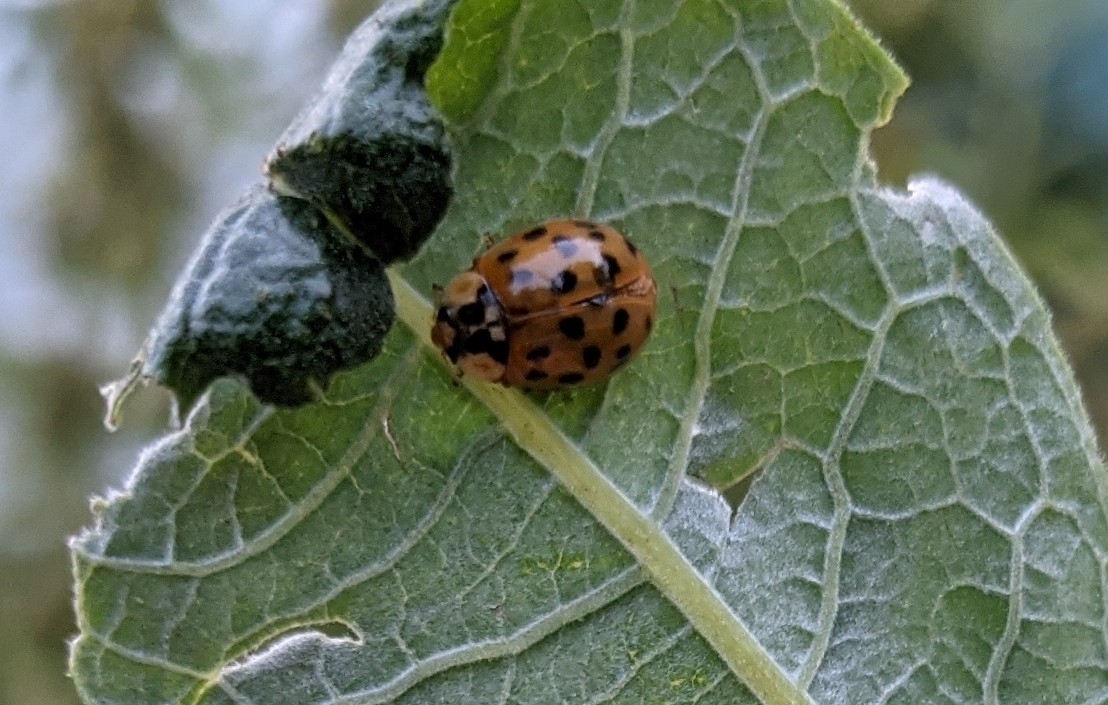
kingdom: Animalia
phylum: Arthropoda
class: Insecta
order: Coleoptera
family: Coccinellidae
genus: Harmonia
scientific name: Harmonia axyridis
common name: Harlequin ladybird
